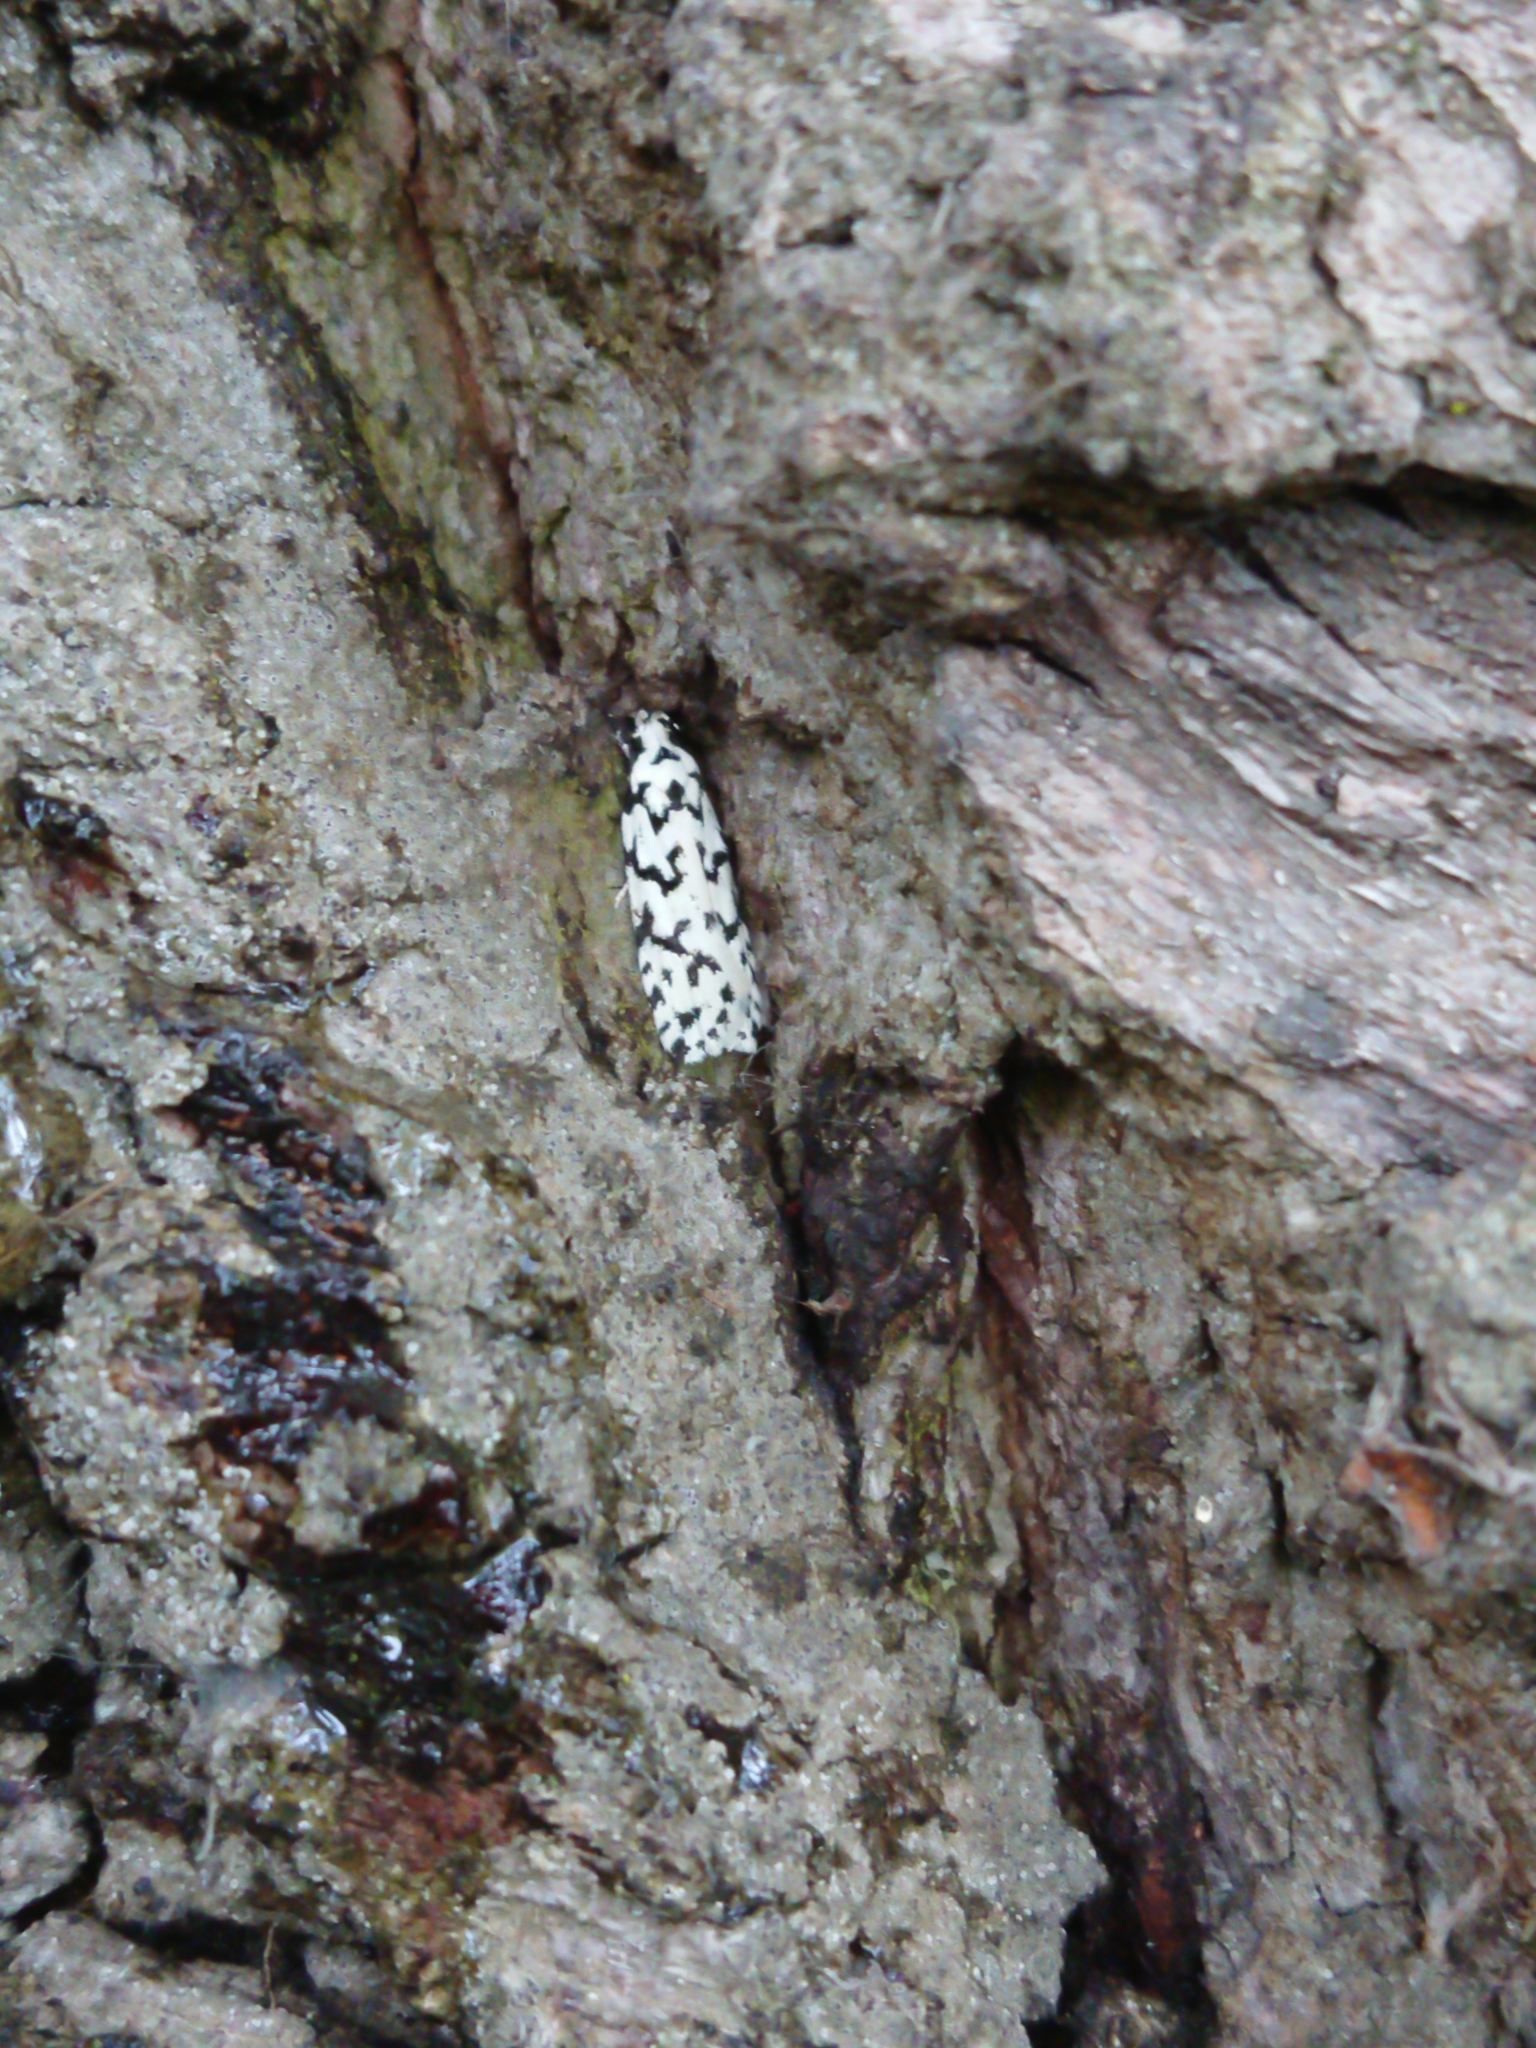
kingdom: Animalia
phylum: Arthropoda
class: Insecta
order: Lepidoptera
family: Oecophoridae
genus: Izatha
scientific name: Izatha katadiktya
